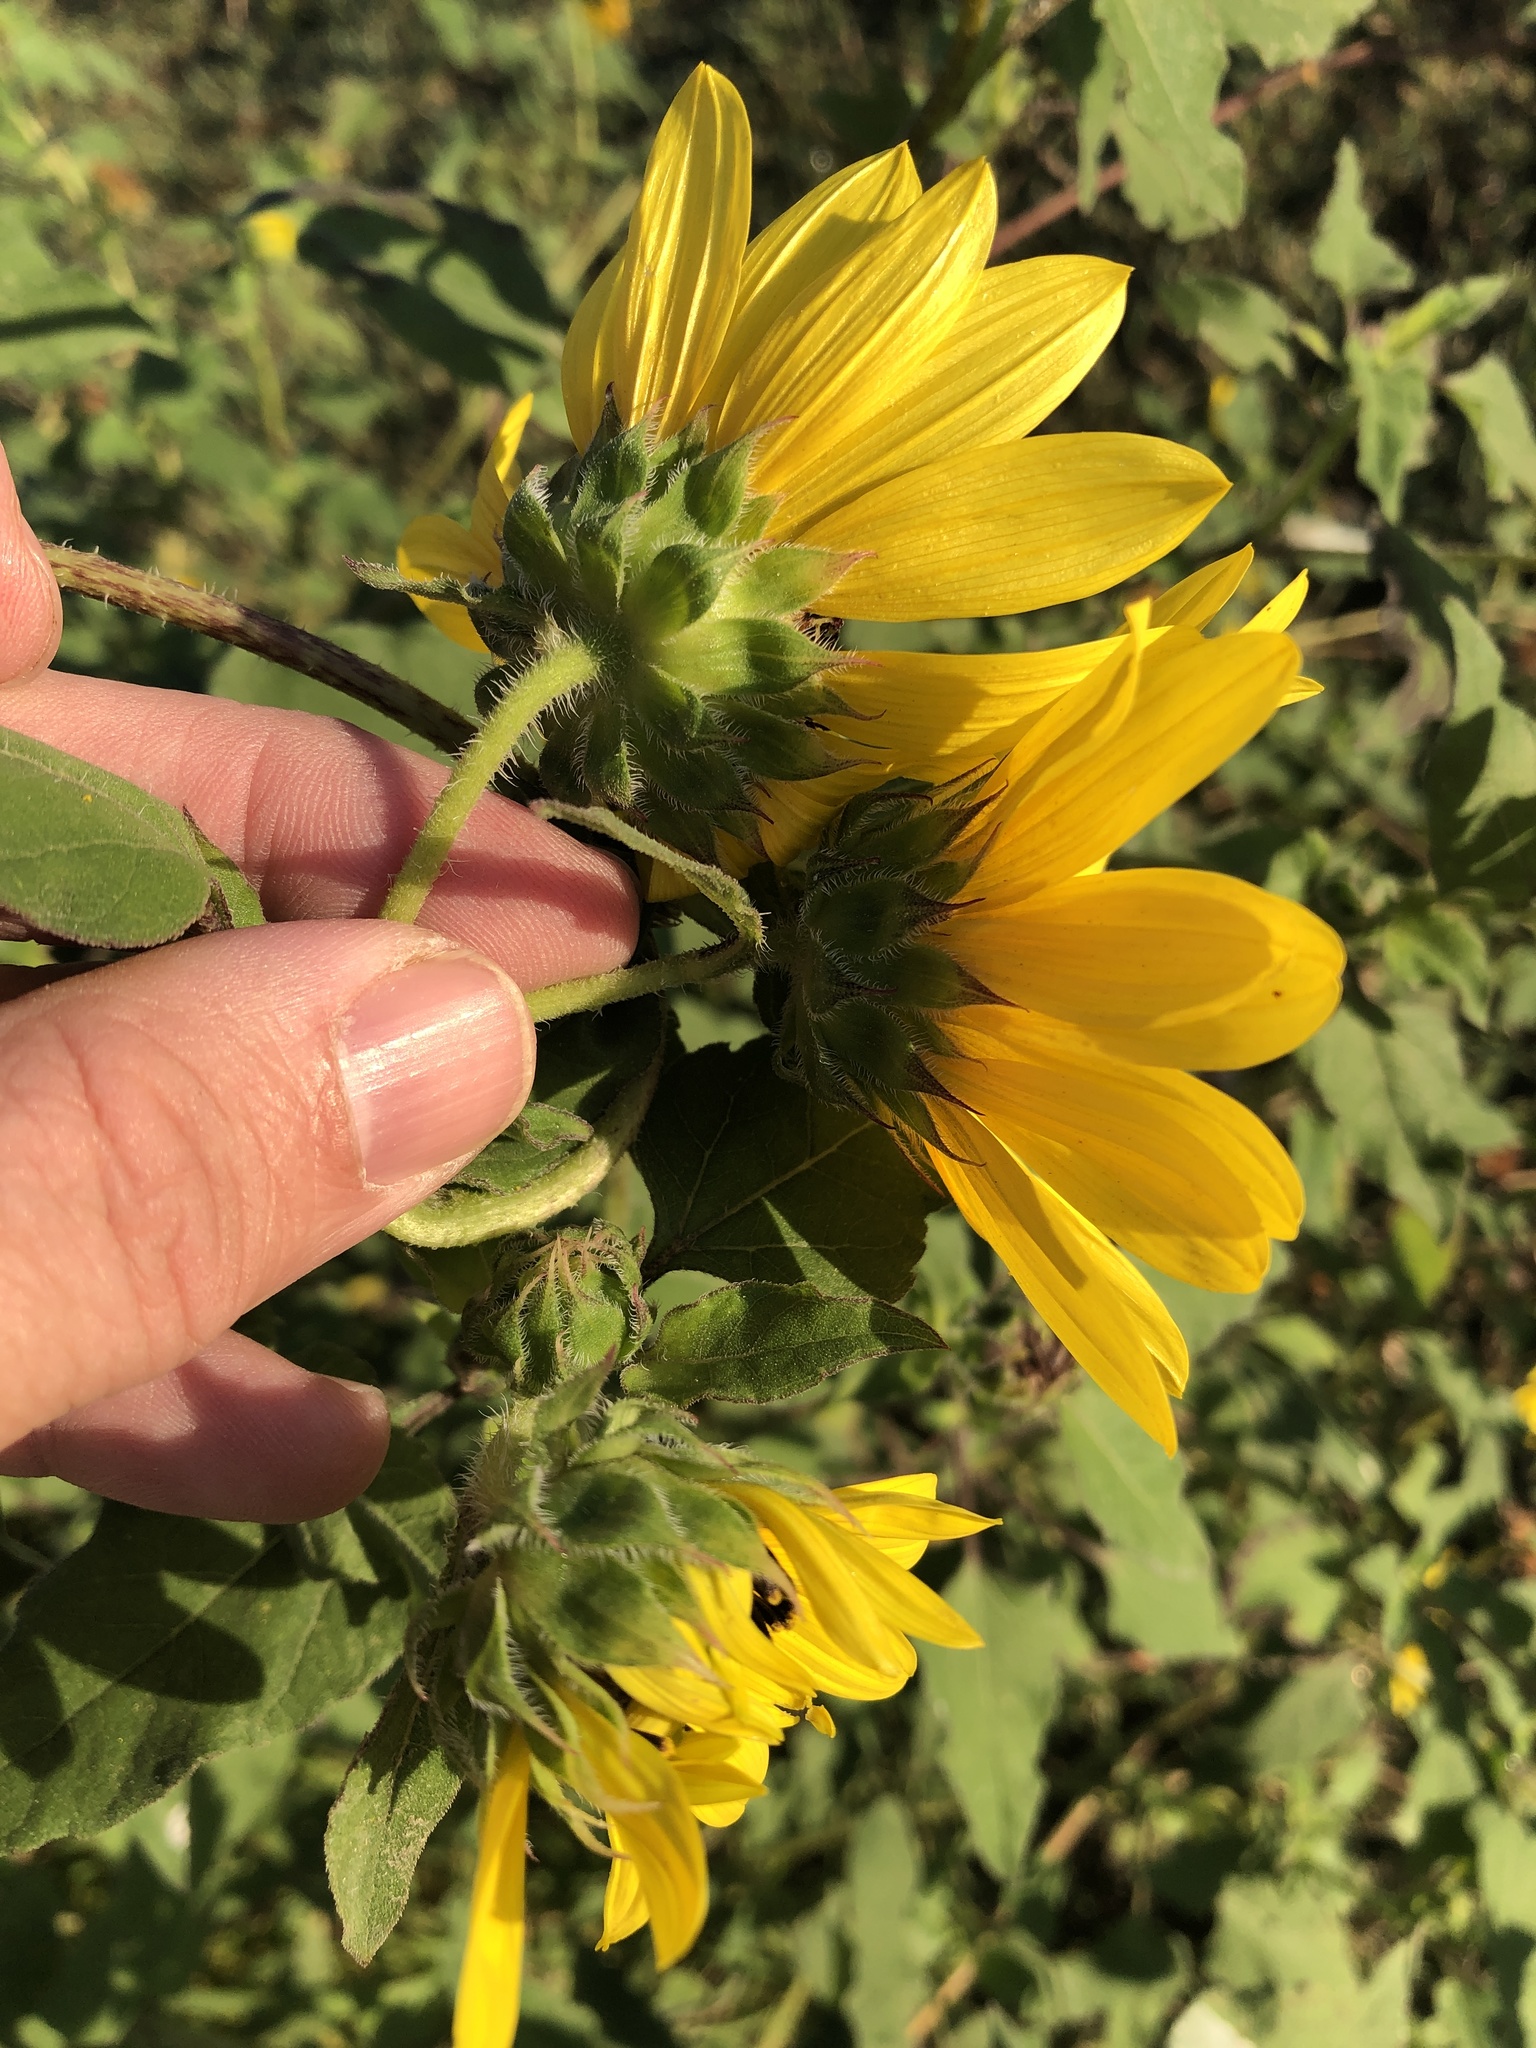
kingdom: Plantae
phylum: Tracheophyta
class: Magnoliopsida
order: Asterales
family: Asteraceae
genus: Helianthus
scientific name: Helianthus annuus
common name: Sunflower
